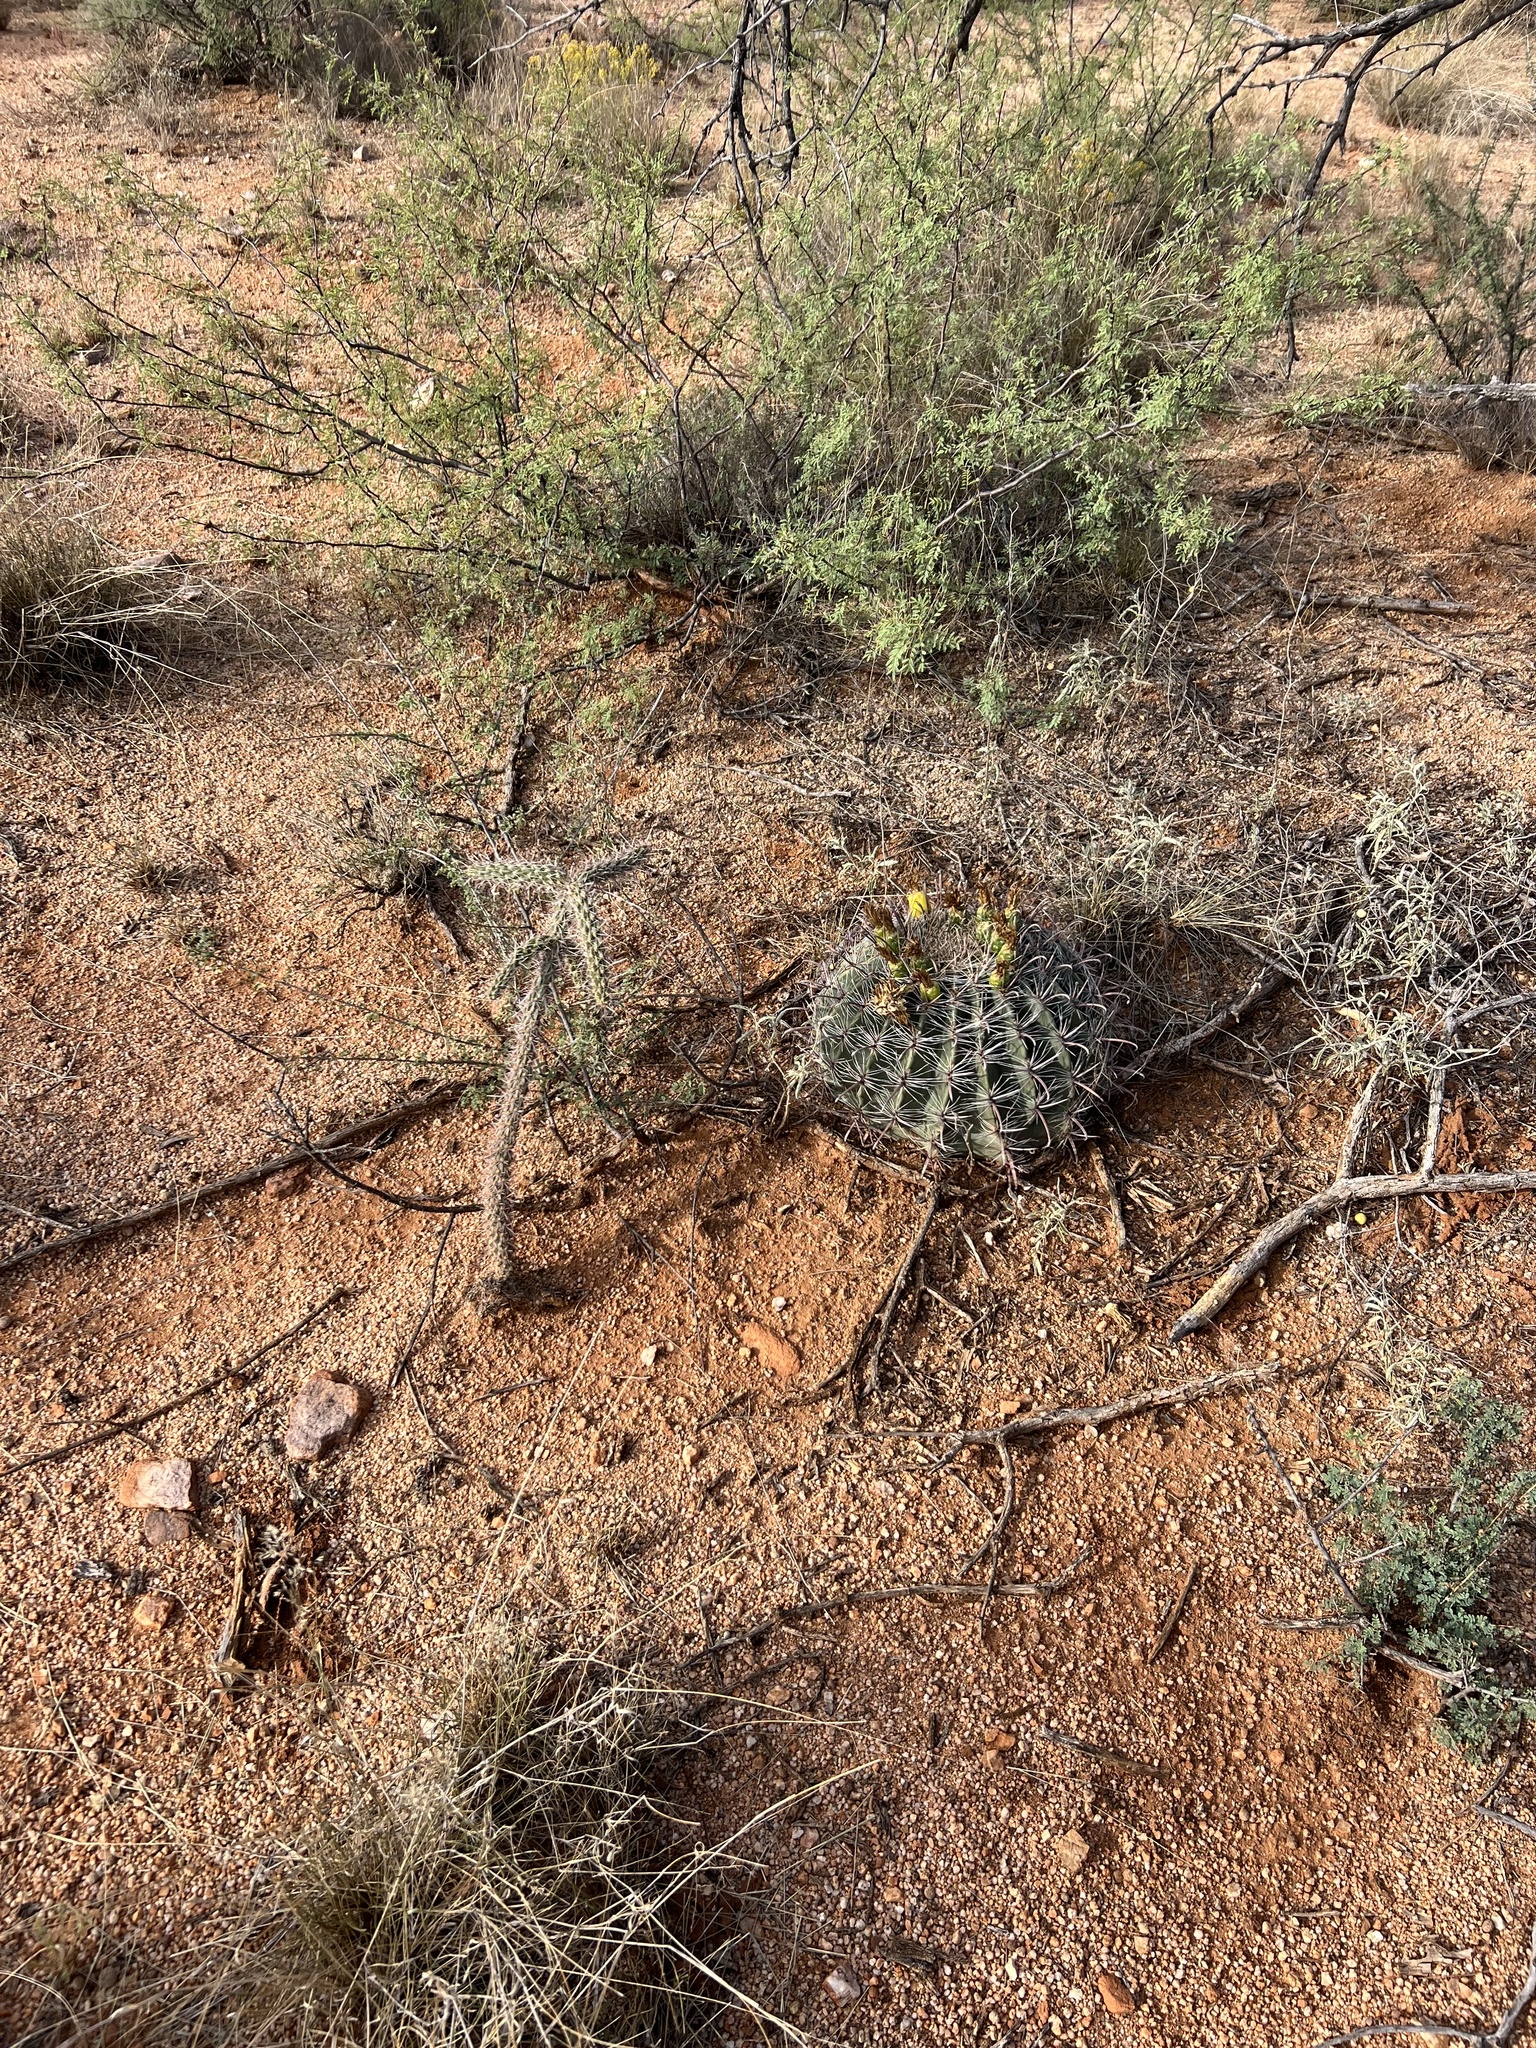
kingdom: Plantae
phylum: Tracheophyta
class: Magnoliopsida
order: Caryophyllales
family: Cactaceae
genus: Cylindropuntia
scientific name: Cylindropuntia imbricata
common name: Candelabrum cactus
